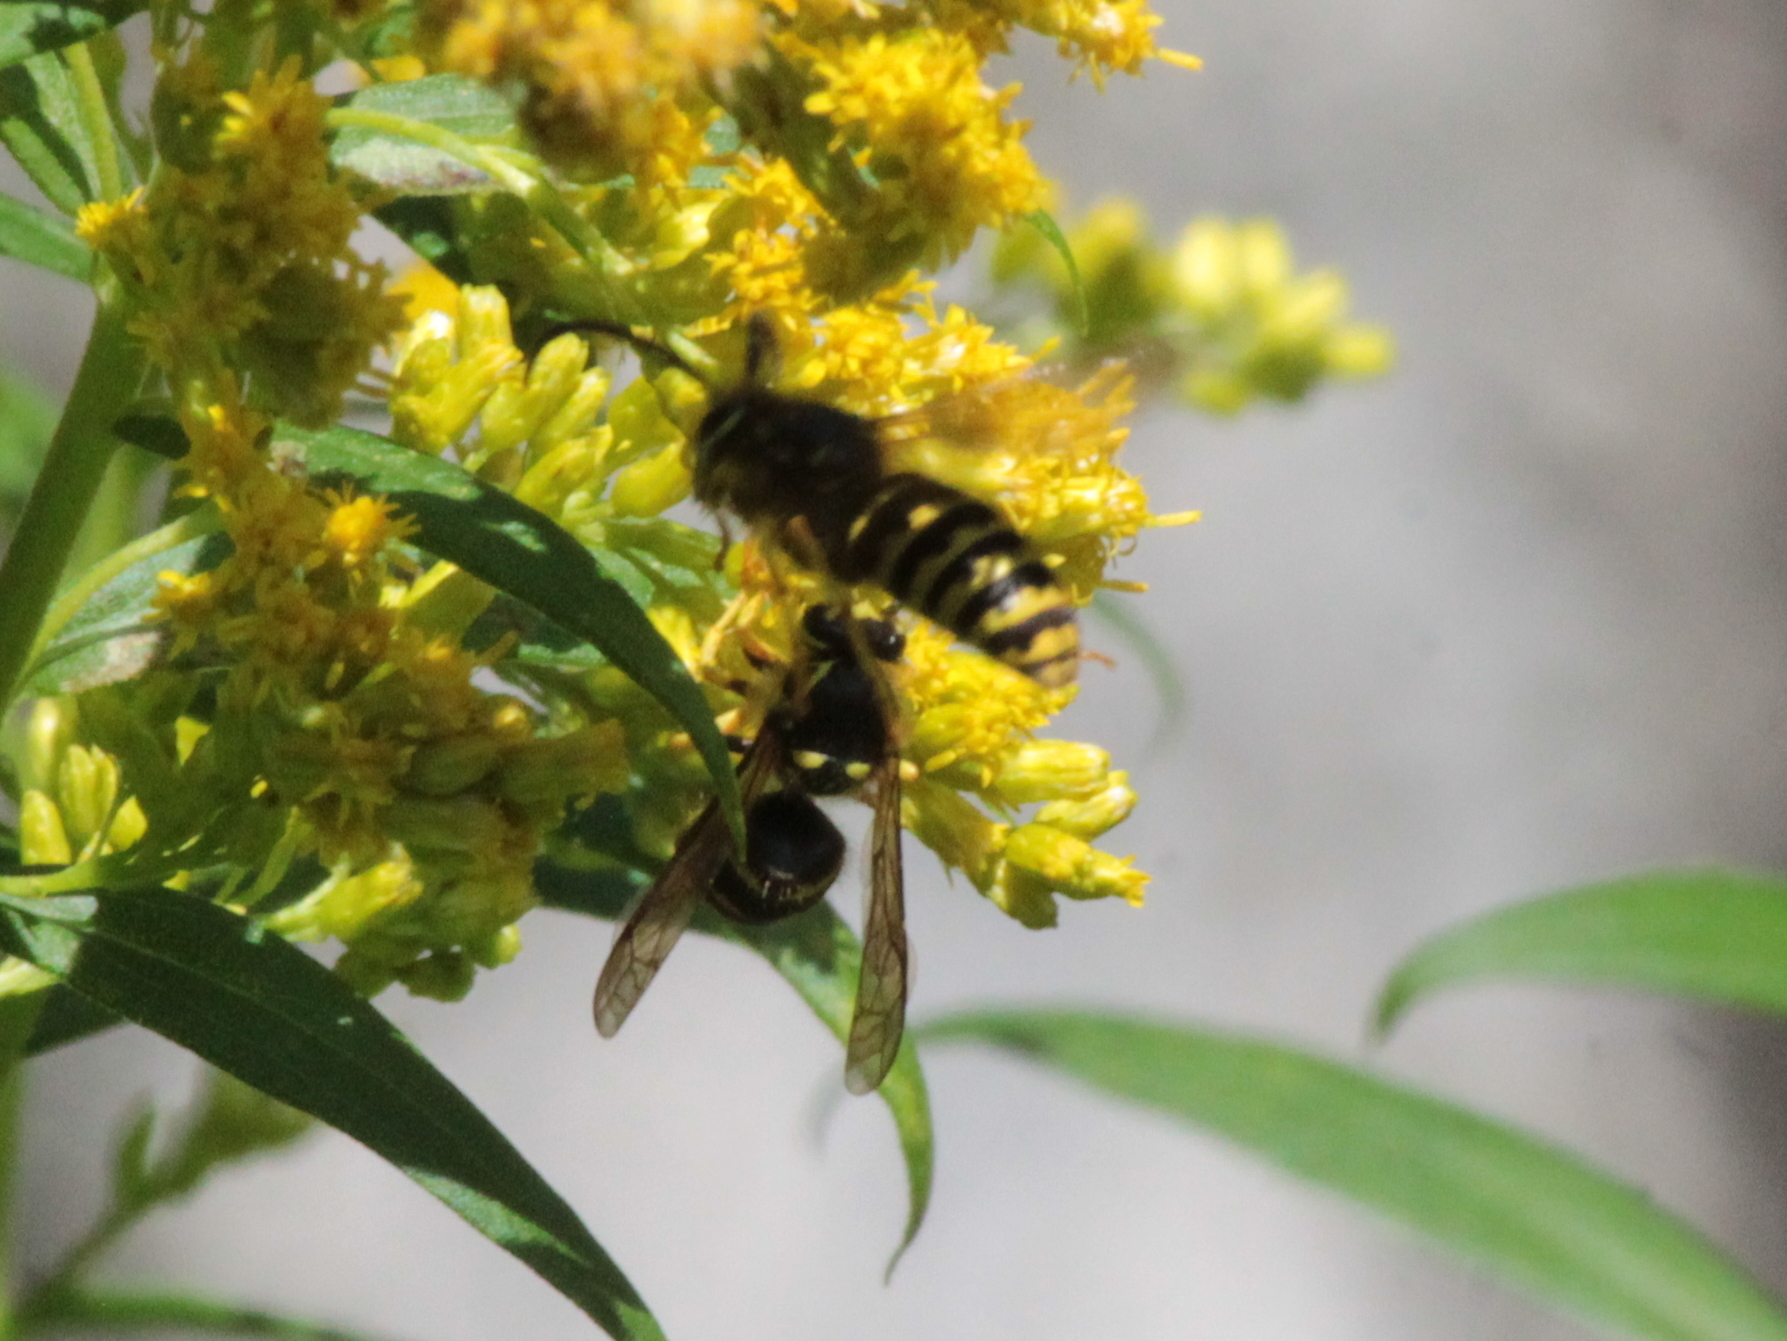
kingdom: Animalia
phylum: Arthropoda
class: Insecta
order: Hymenoptera
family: Vespidae
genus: Dolichovespula
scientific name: Dolichovespula arenaria
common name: Aerial yellowjacket
